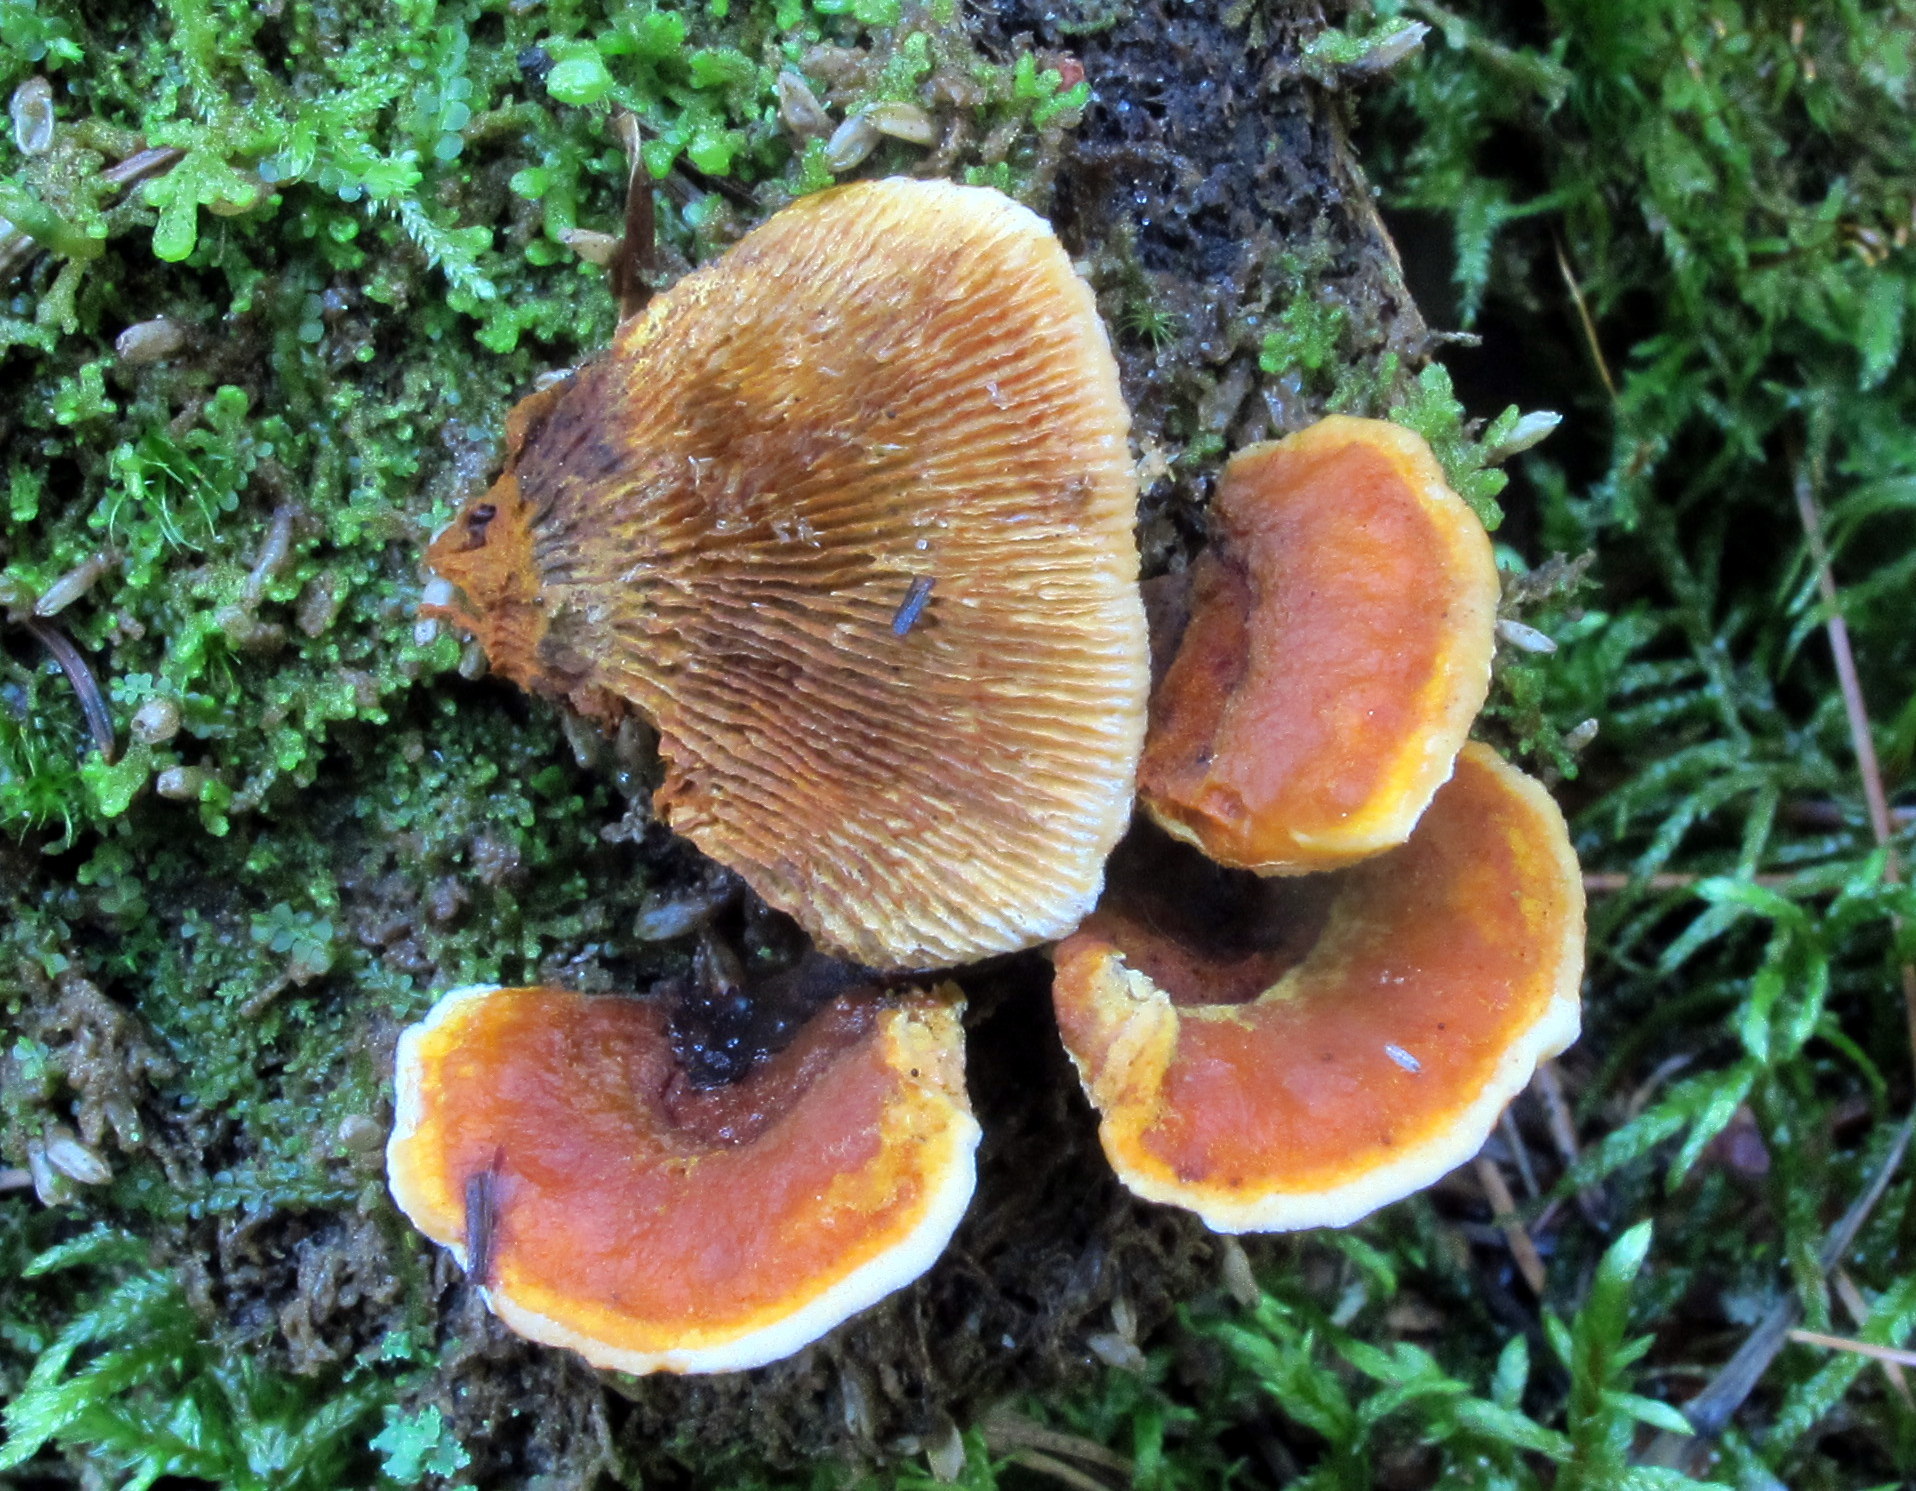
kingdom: Fungi
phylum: Basidiomycota
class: Agaricomycetes
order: Gloeophyllales
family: Gloeophyllaceae
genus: Gloeophyllum
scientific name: Gloeophyllum sepiarium
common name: Conifer mazegill
